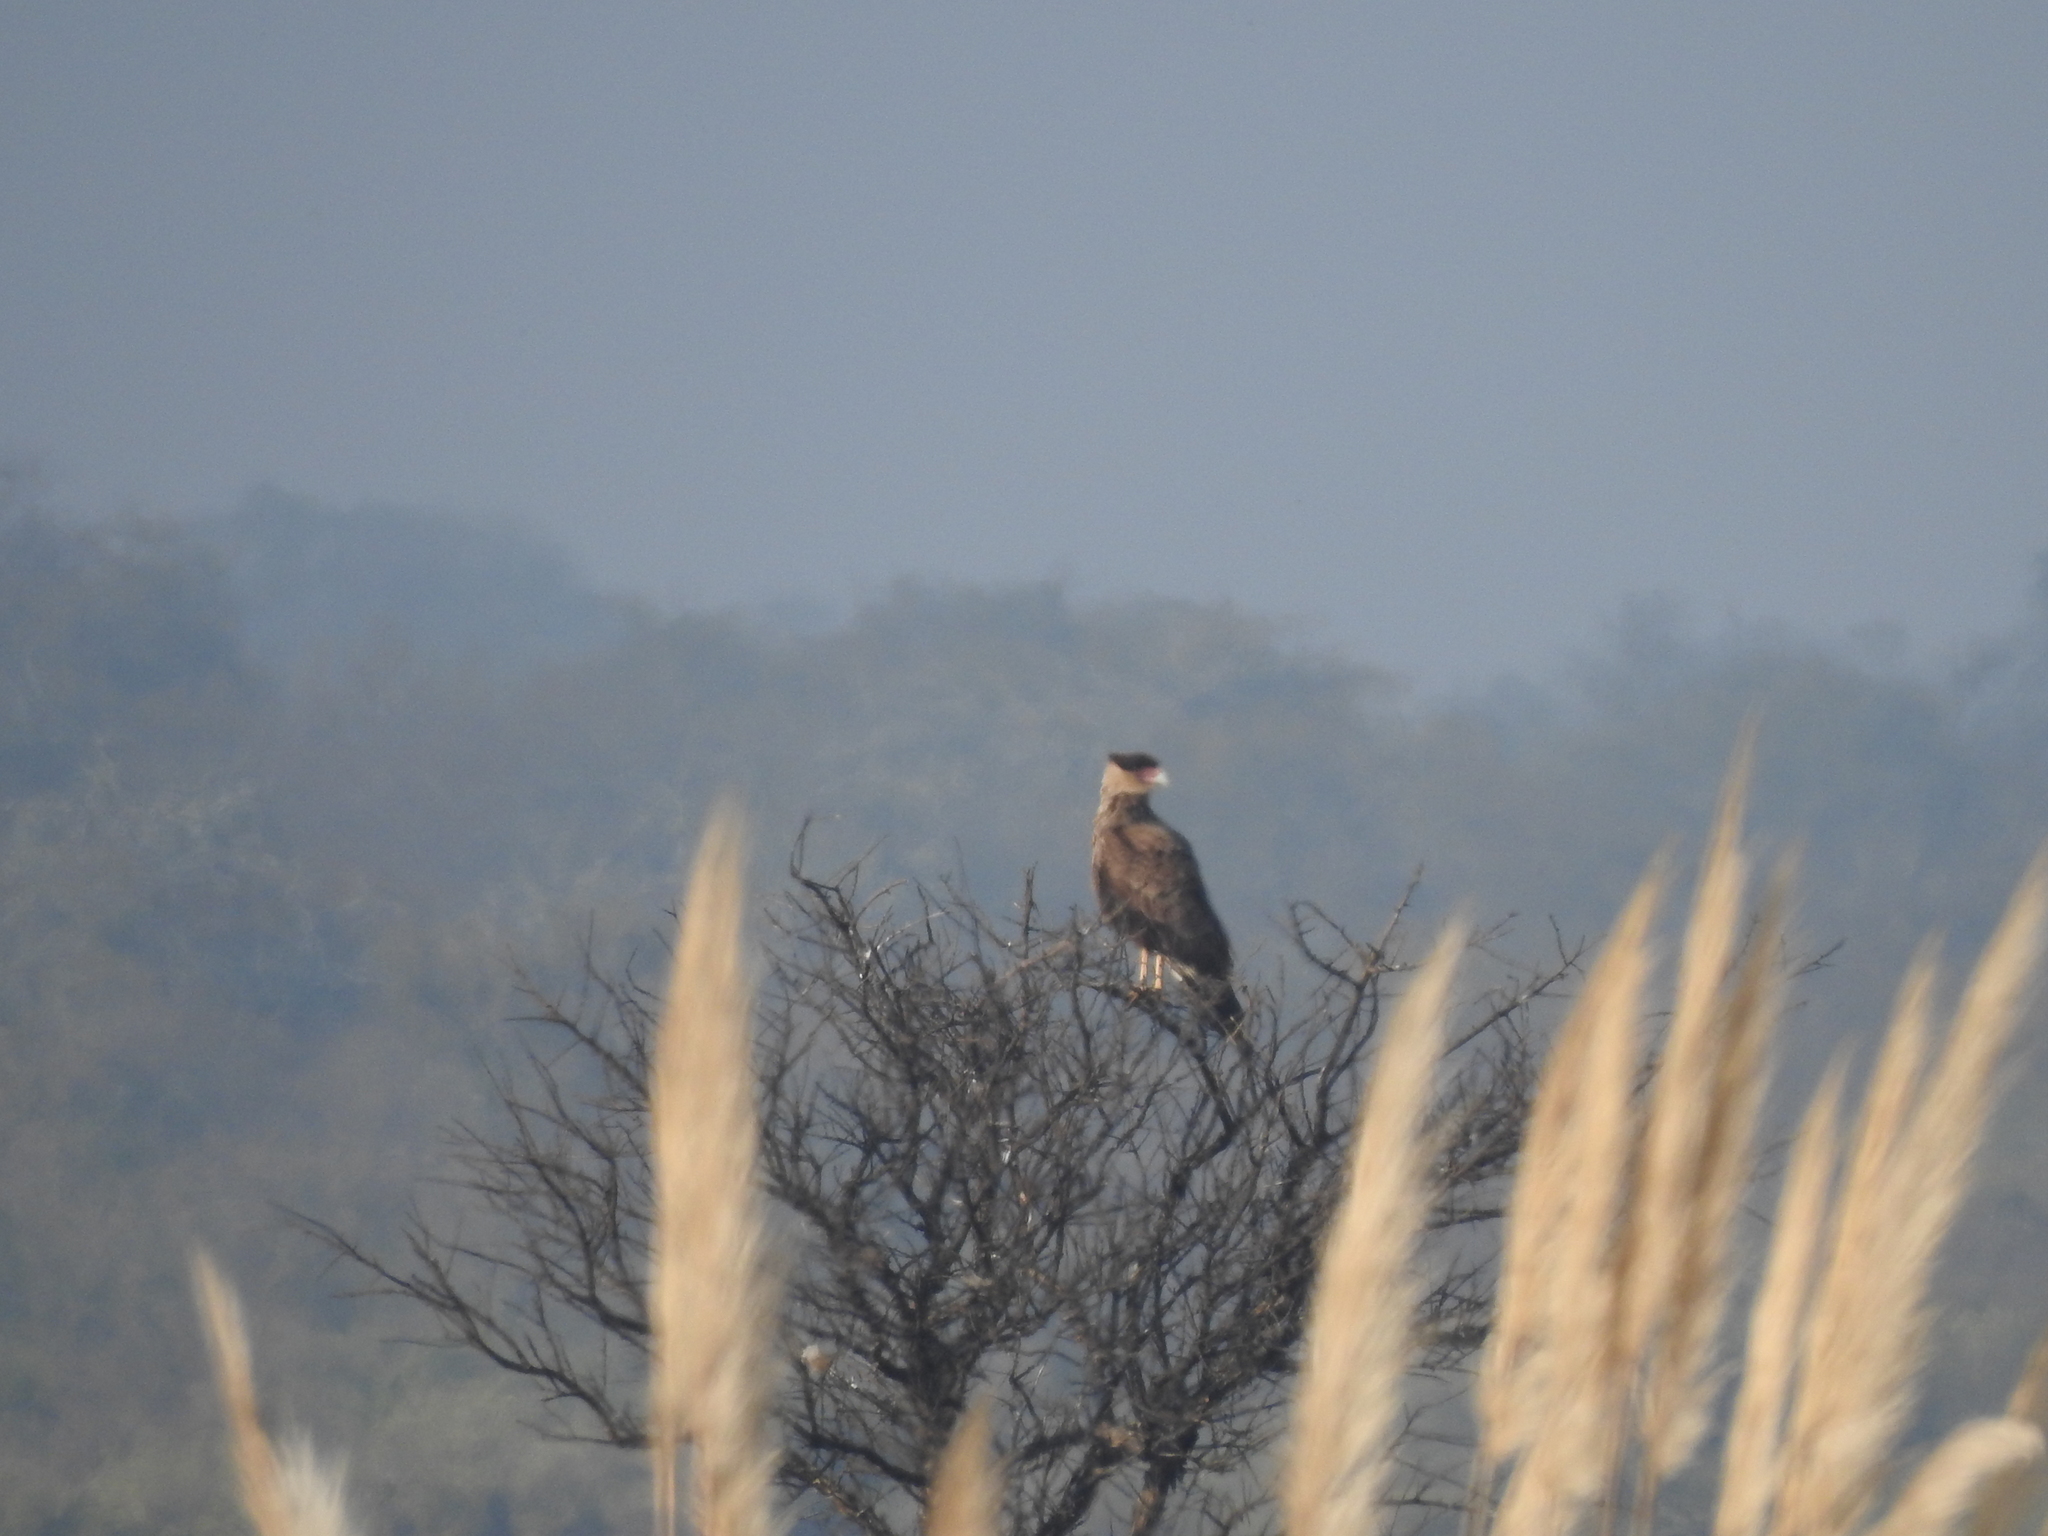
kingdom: Animalia
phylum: Chordata
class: Aves
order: Falconiformes
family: Falconidae
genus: Caracara
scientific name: Caracara plancus
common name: Southern caracara
